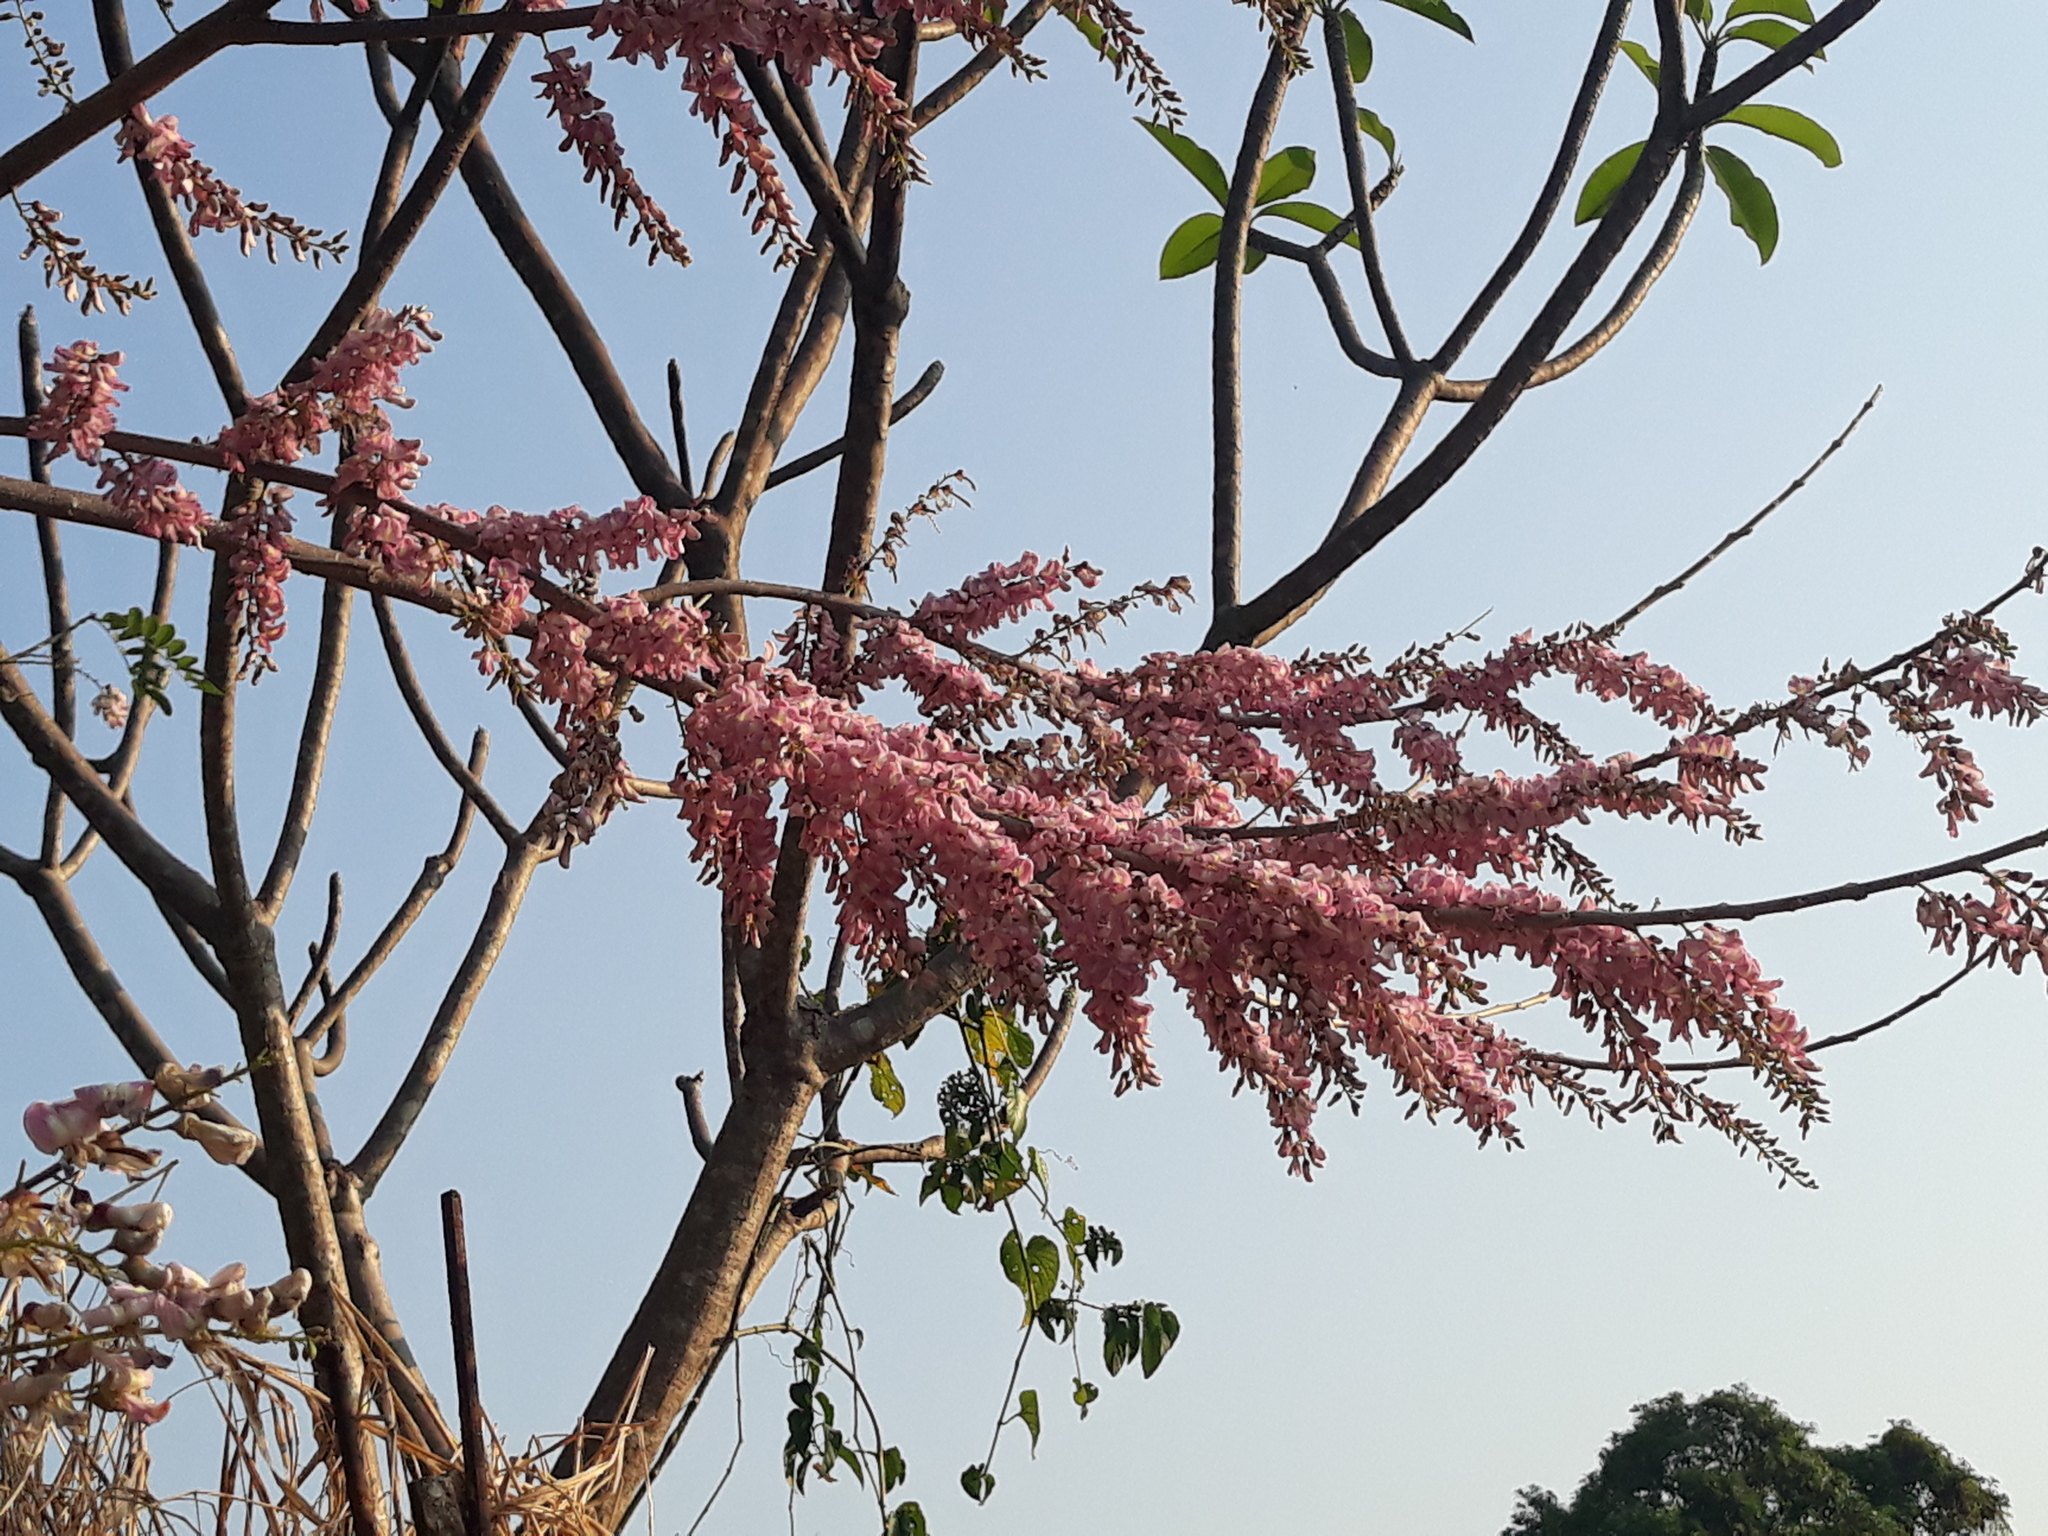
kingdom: Plantae
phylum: Tracheophyta
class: Magnoliopsida
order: Fabales
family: Fabaceae
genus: Gliricidia
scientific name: Gliricidia sepium
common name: Quickstick
